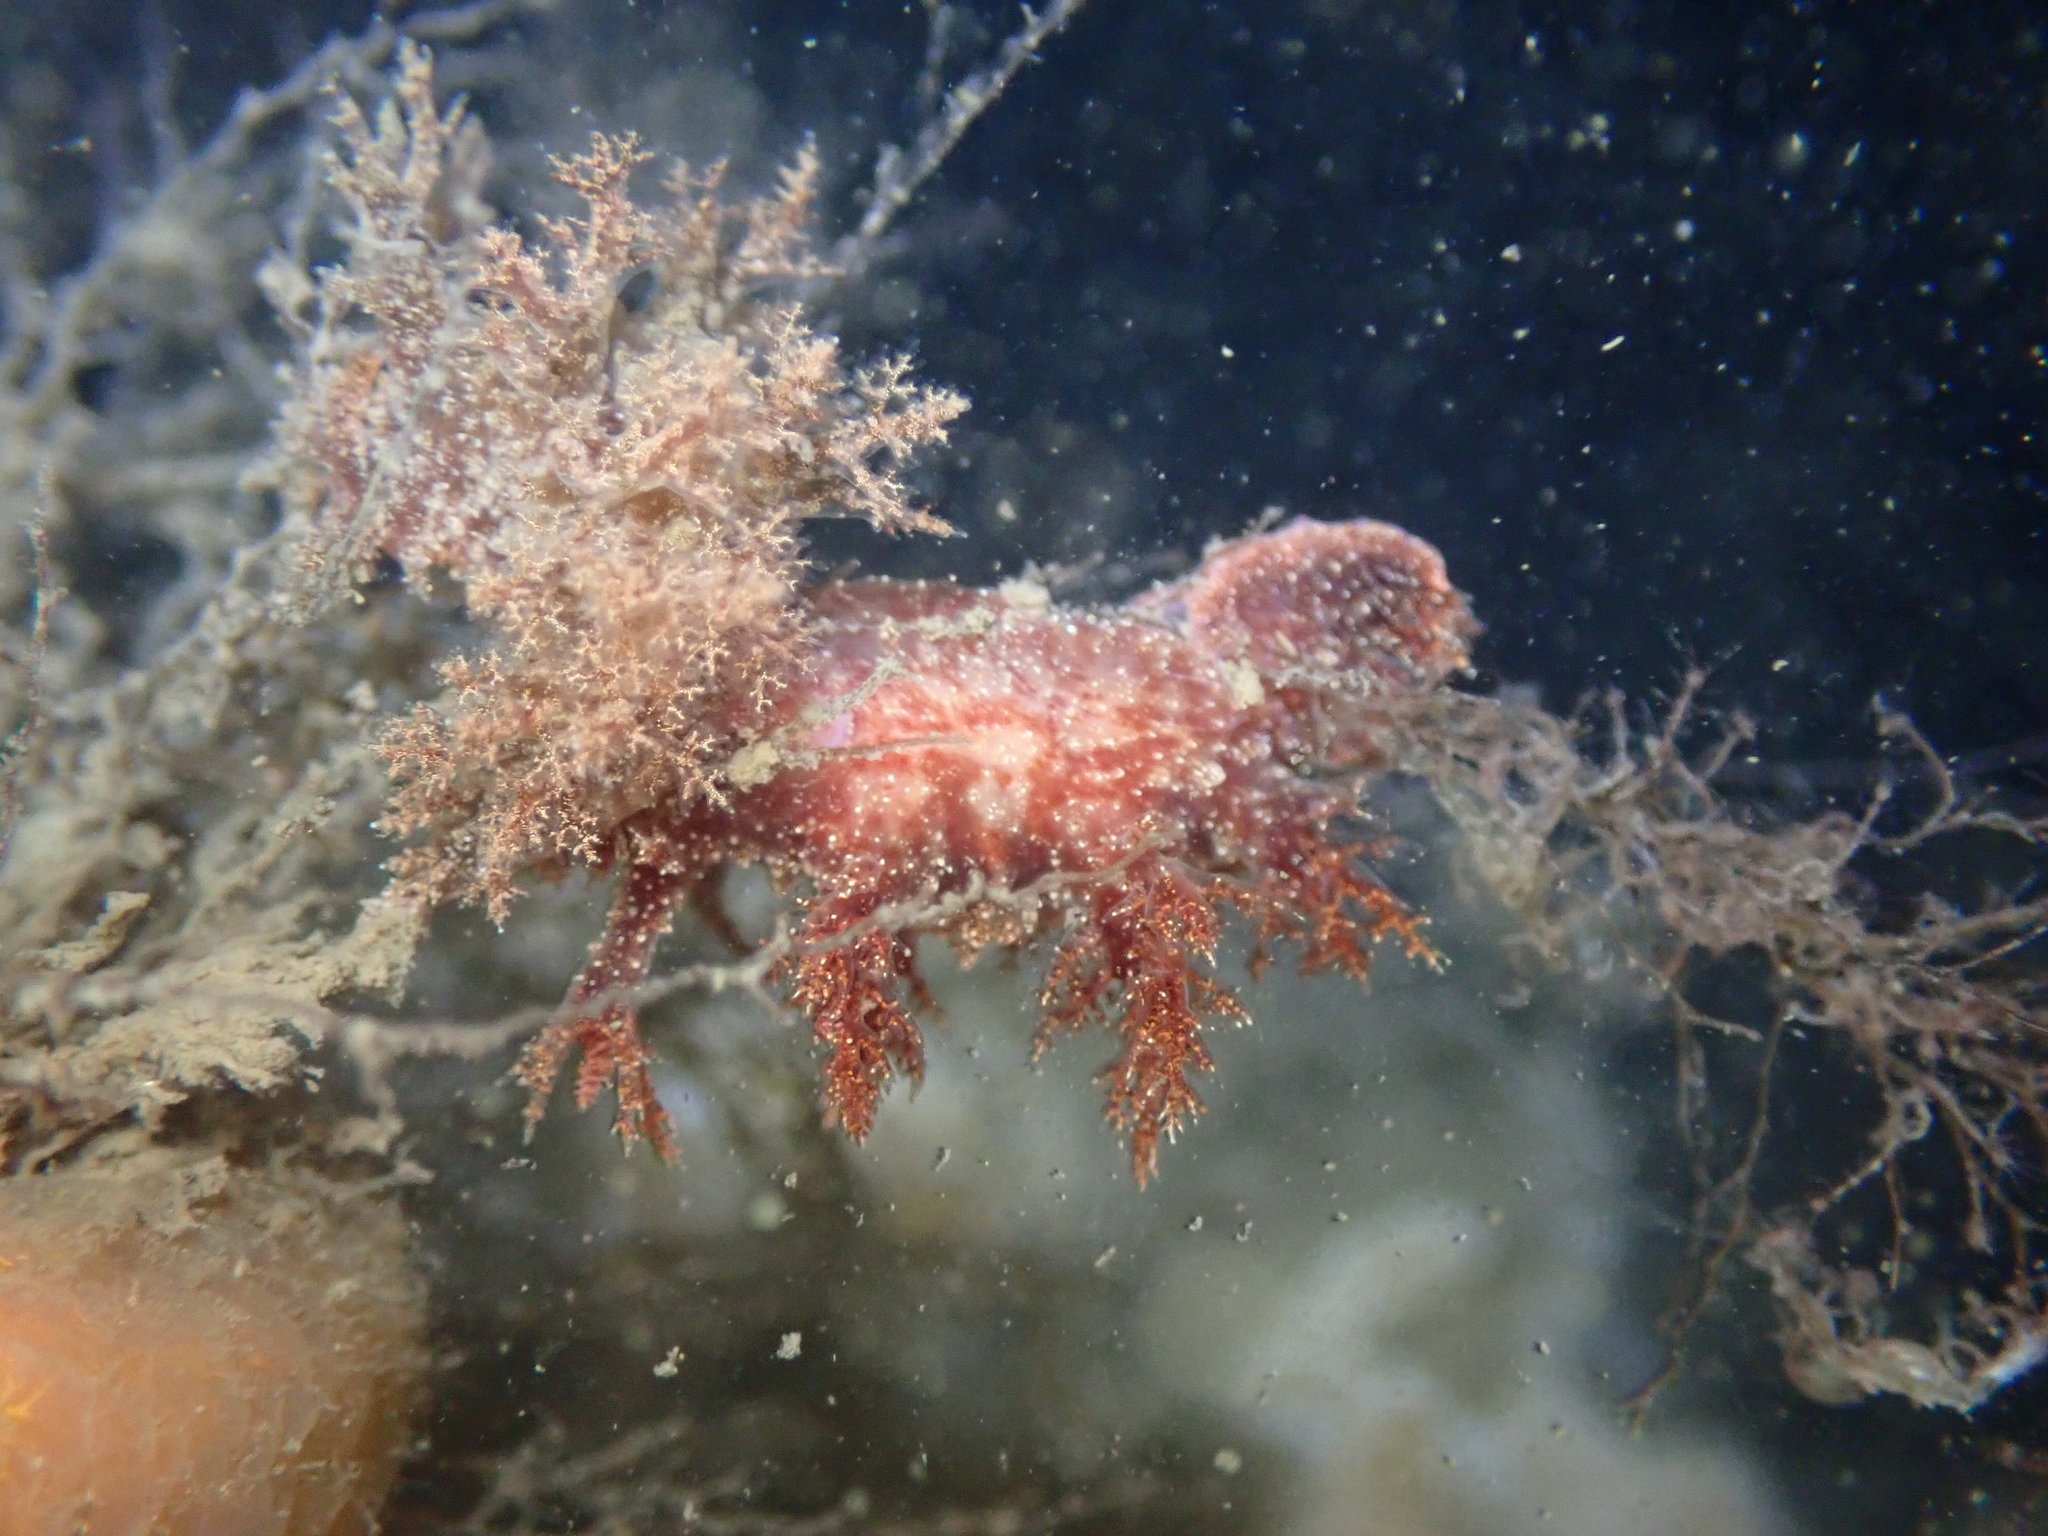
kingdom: Animalia
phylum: Mollusca
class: Gastropoda
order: Nudibranchia
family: Dendronotidae
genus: Dendronotus
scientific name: Dendronotus venustus
